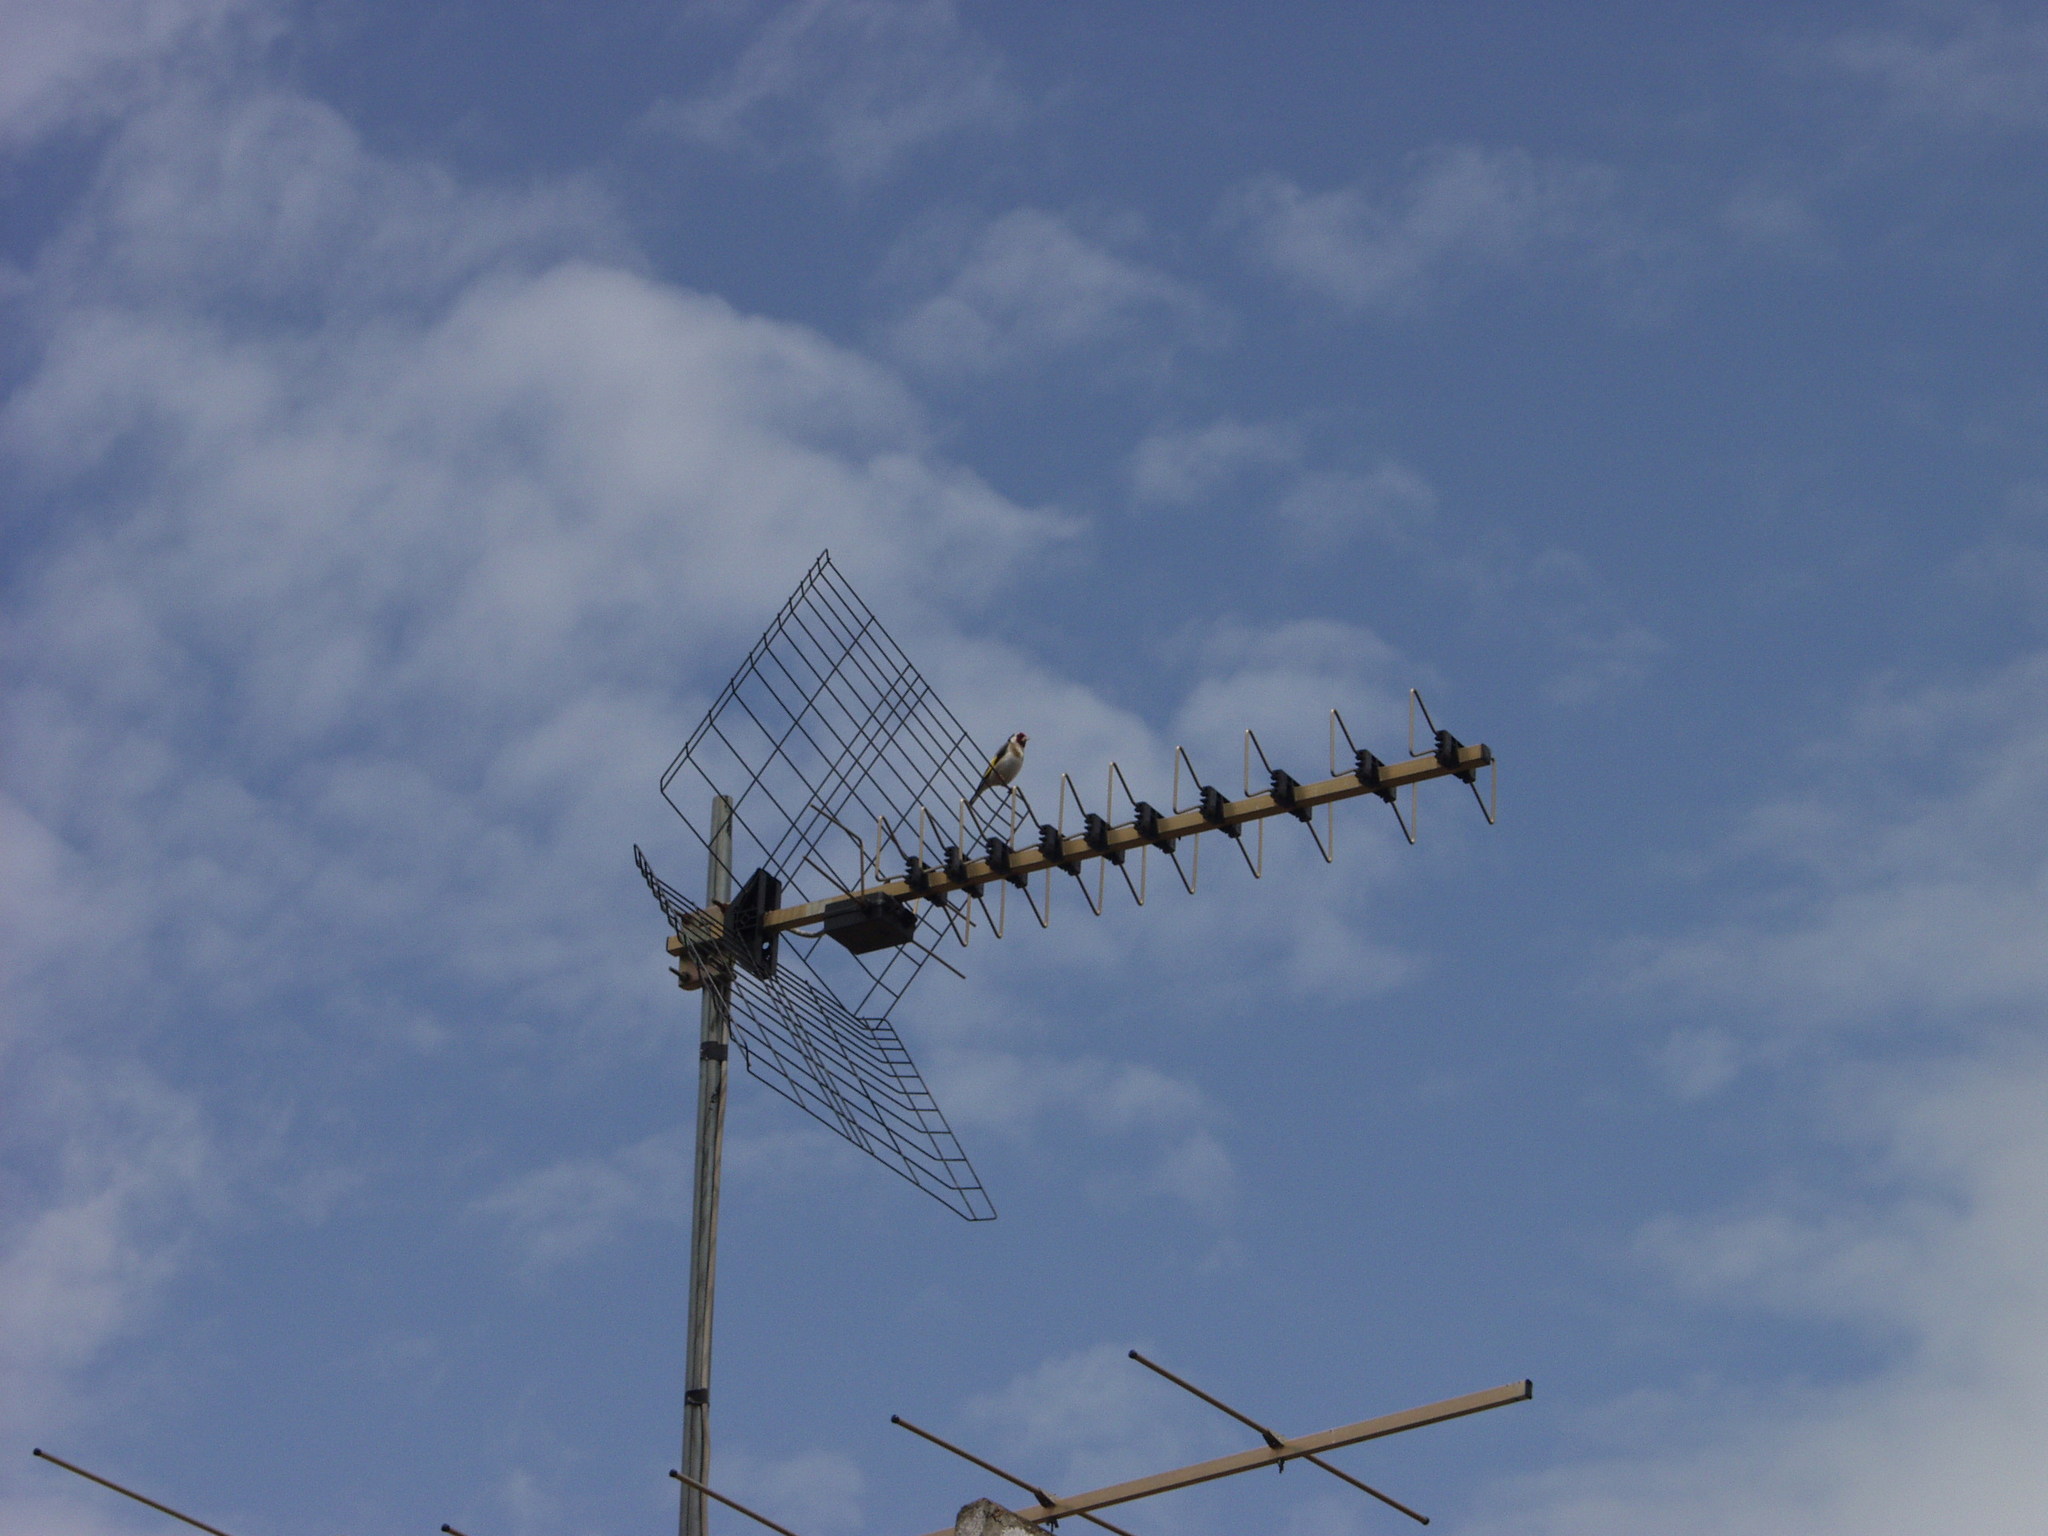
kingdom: Animalia
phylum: Chordata
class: Aves
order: Passeriformes
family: Fringillidae
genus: Carduelis
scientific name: Carduelis carduelis
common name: European goldfinch
